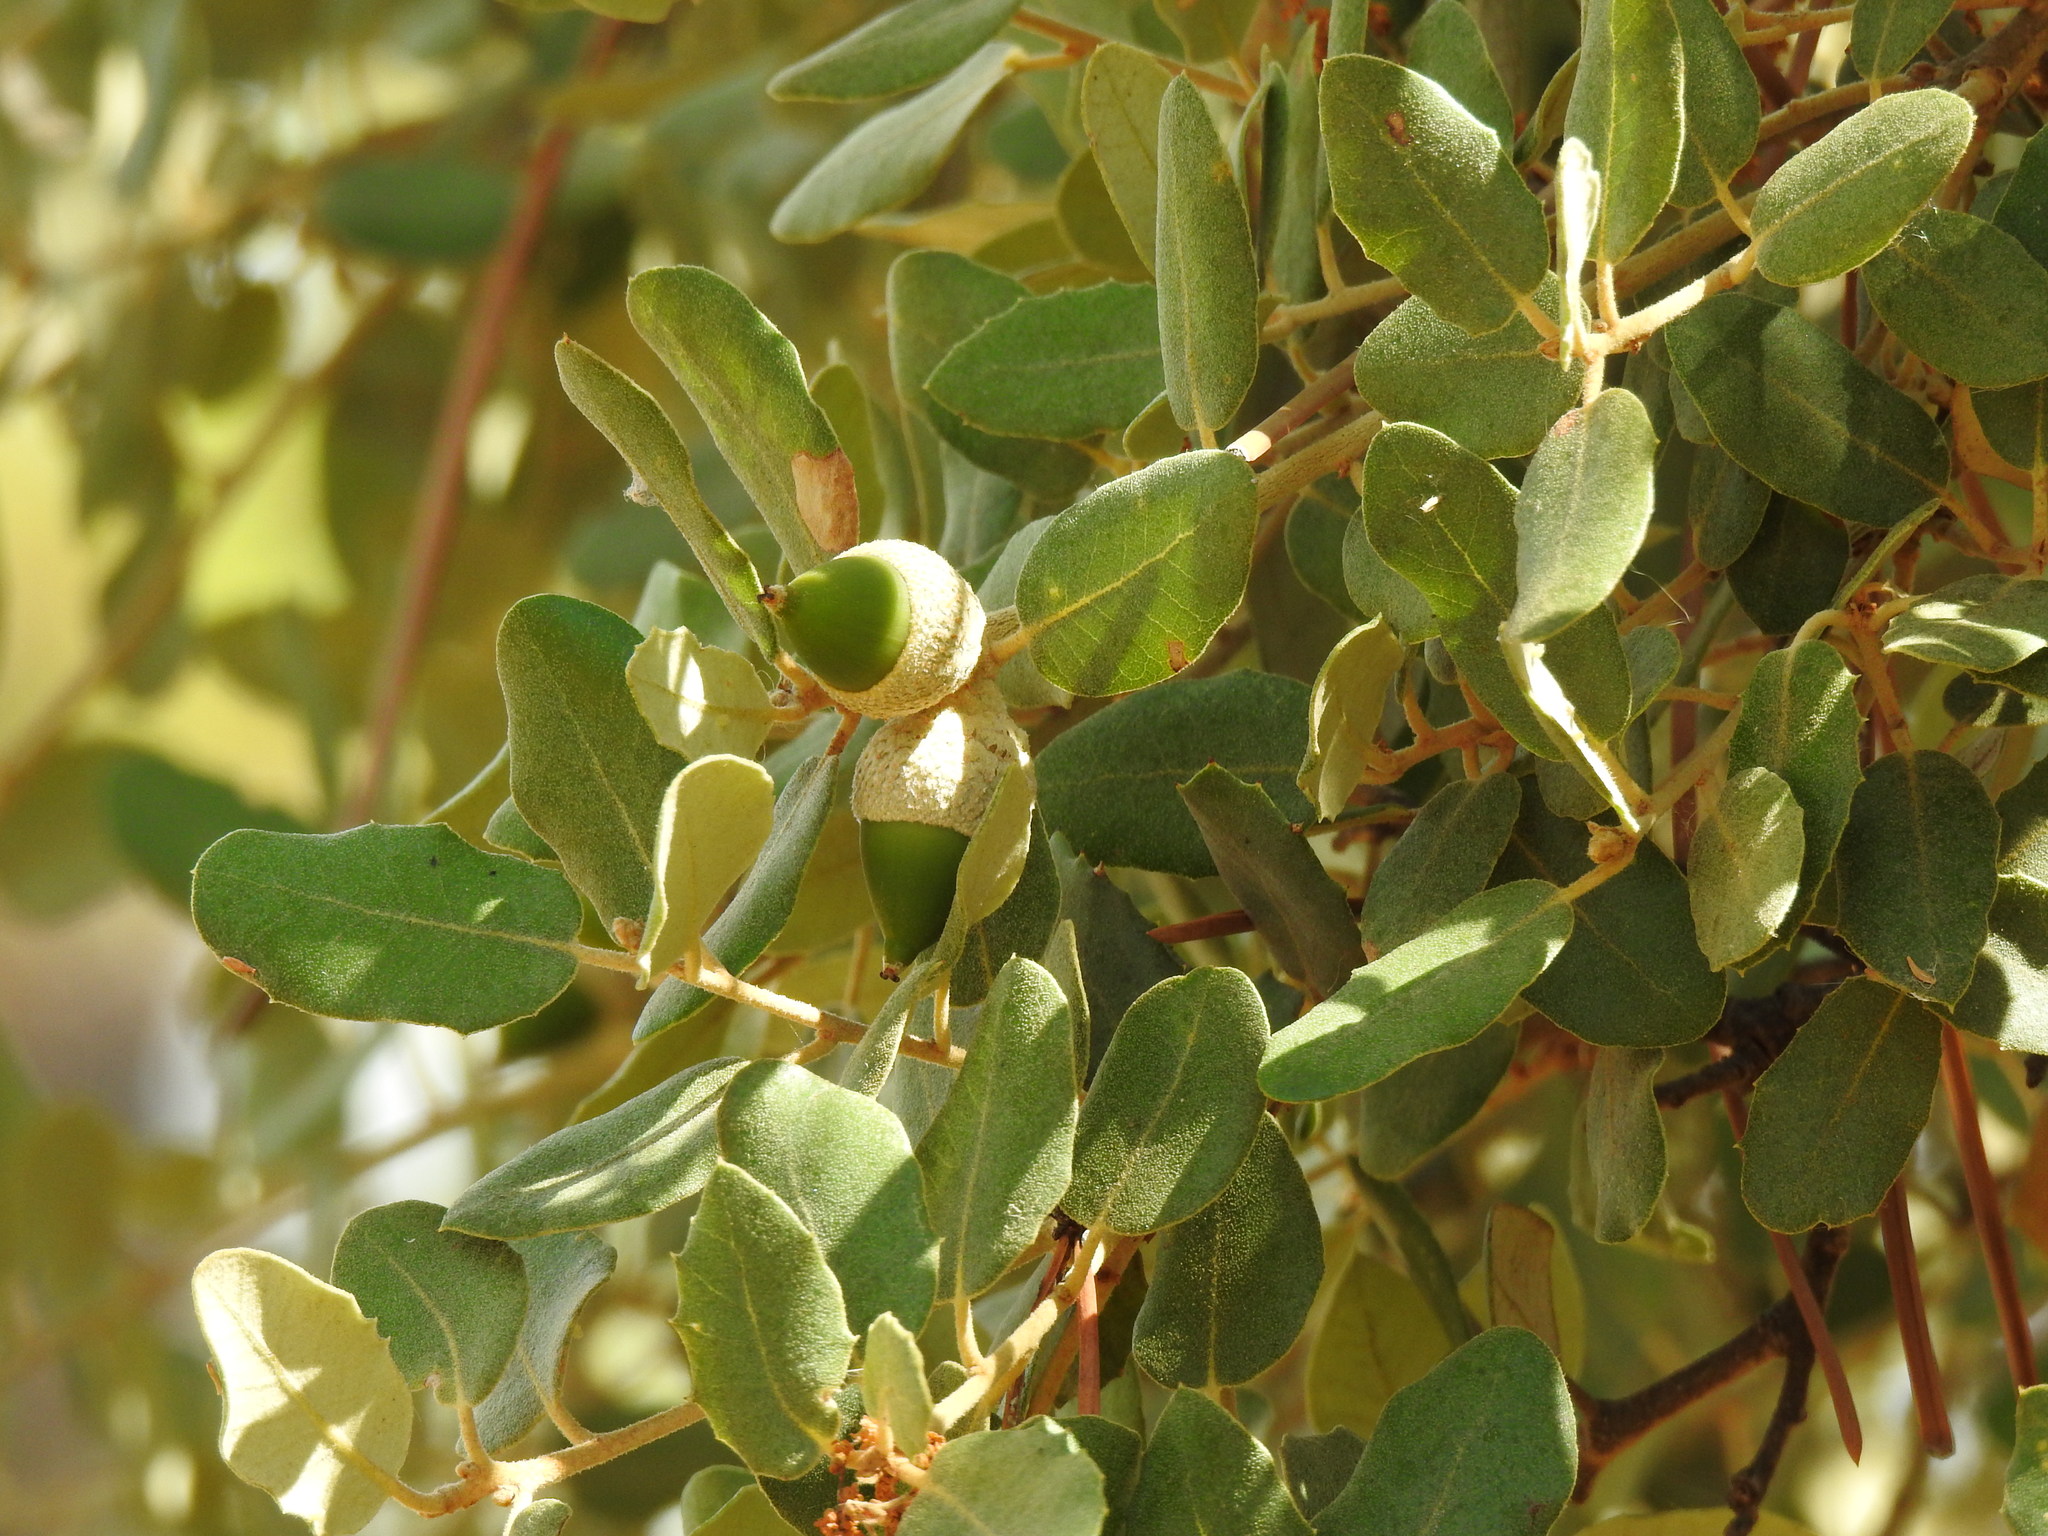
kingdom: Plantae
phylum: Tracheophyta
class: Magnoliopsida
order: Fagales
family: Fagaceae
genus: Quercus
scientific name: Quercus rotundifolia
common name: Holm oak
